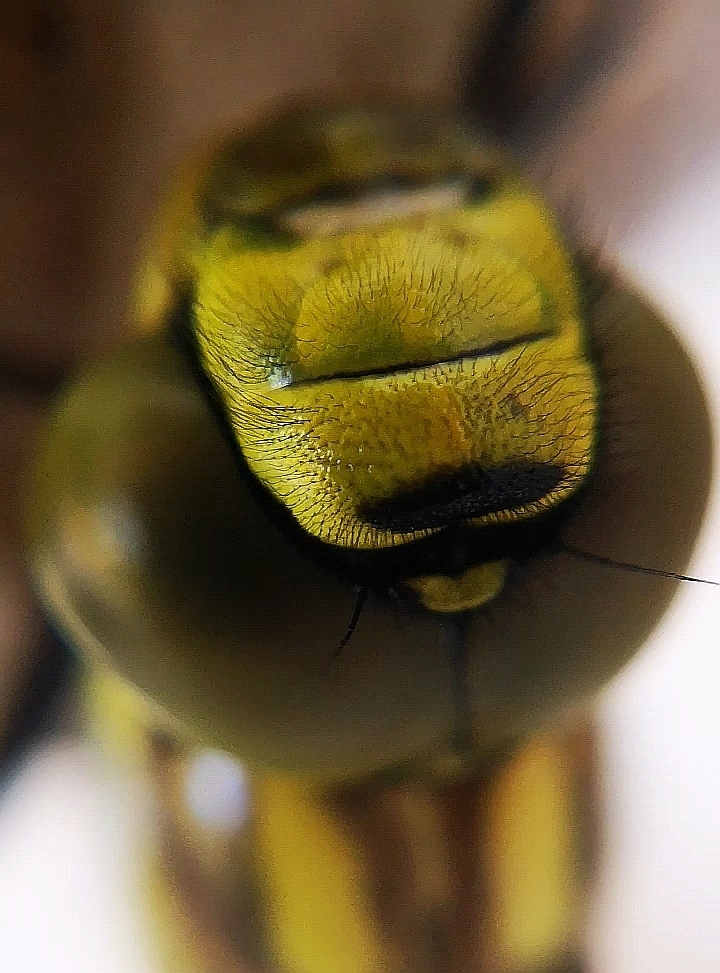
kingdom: Animalia
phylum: Arthropoda
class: Insecta
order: Odonata
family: Aeshnidae
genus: Aeshna
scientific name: Aeshna cyanea
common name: Southern hawker
